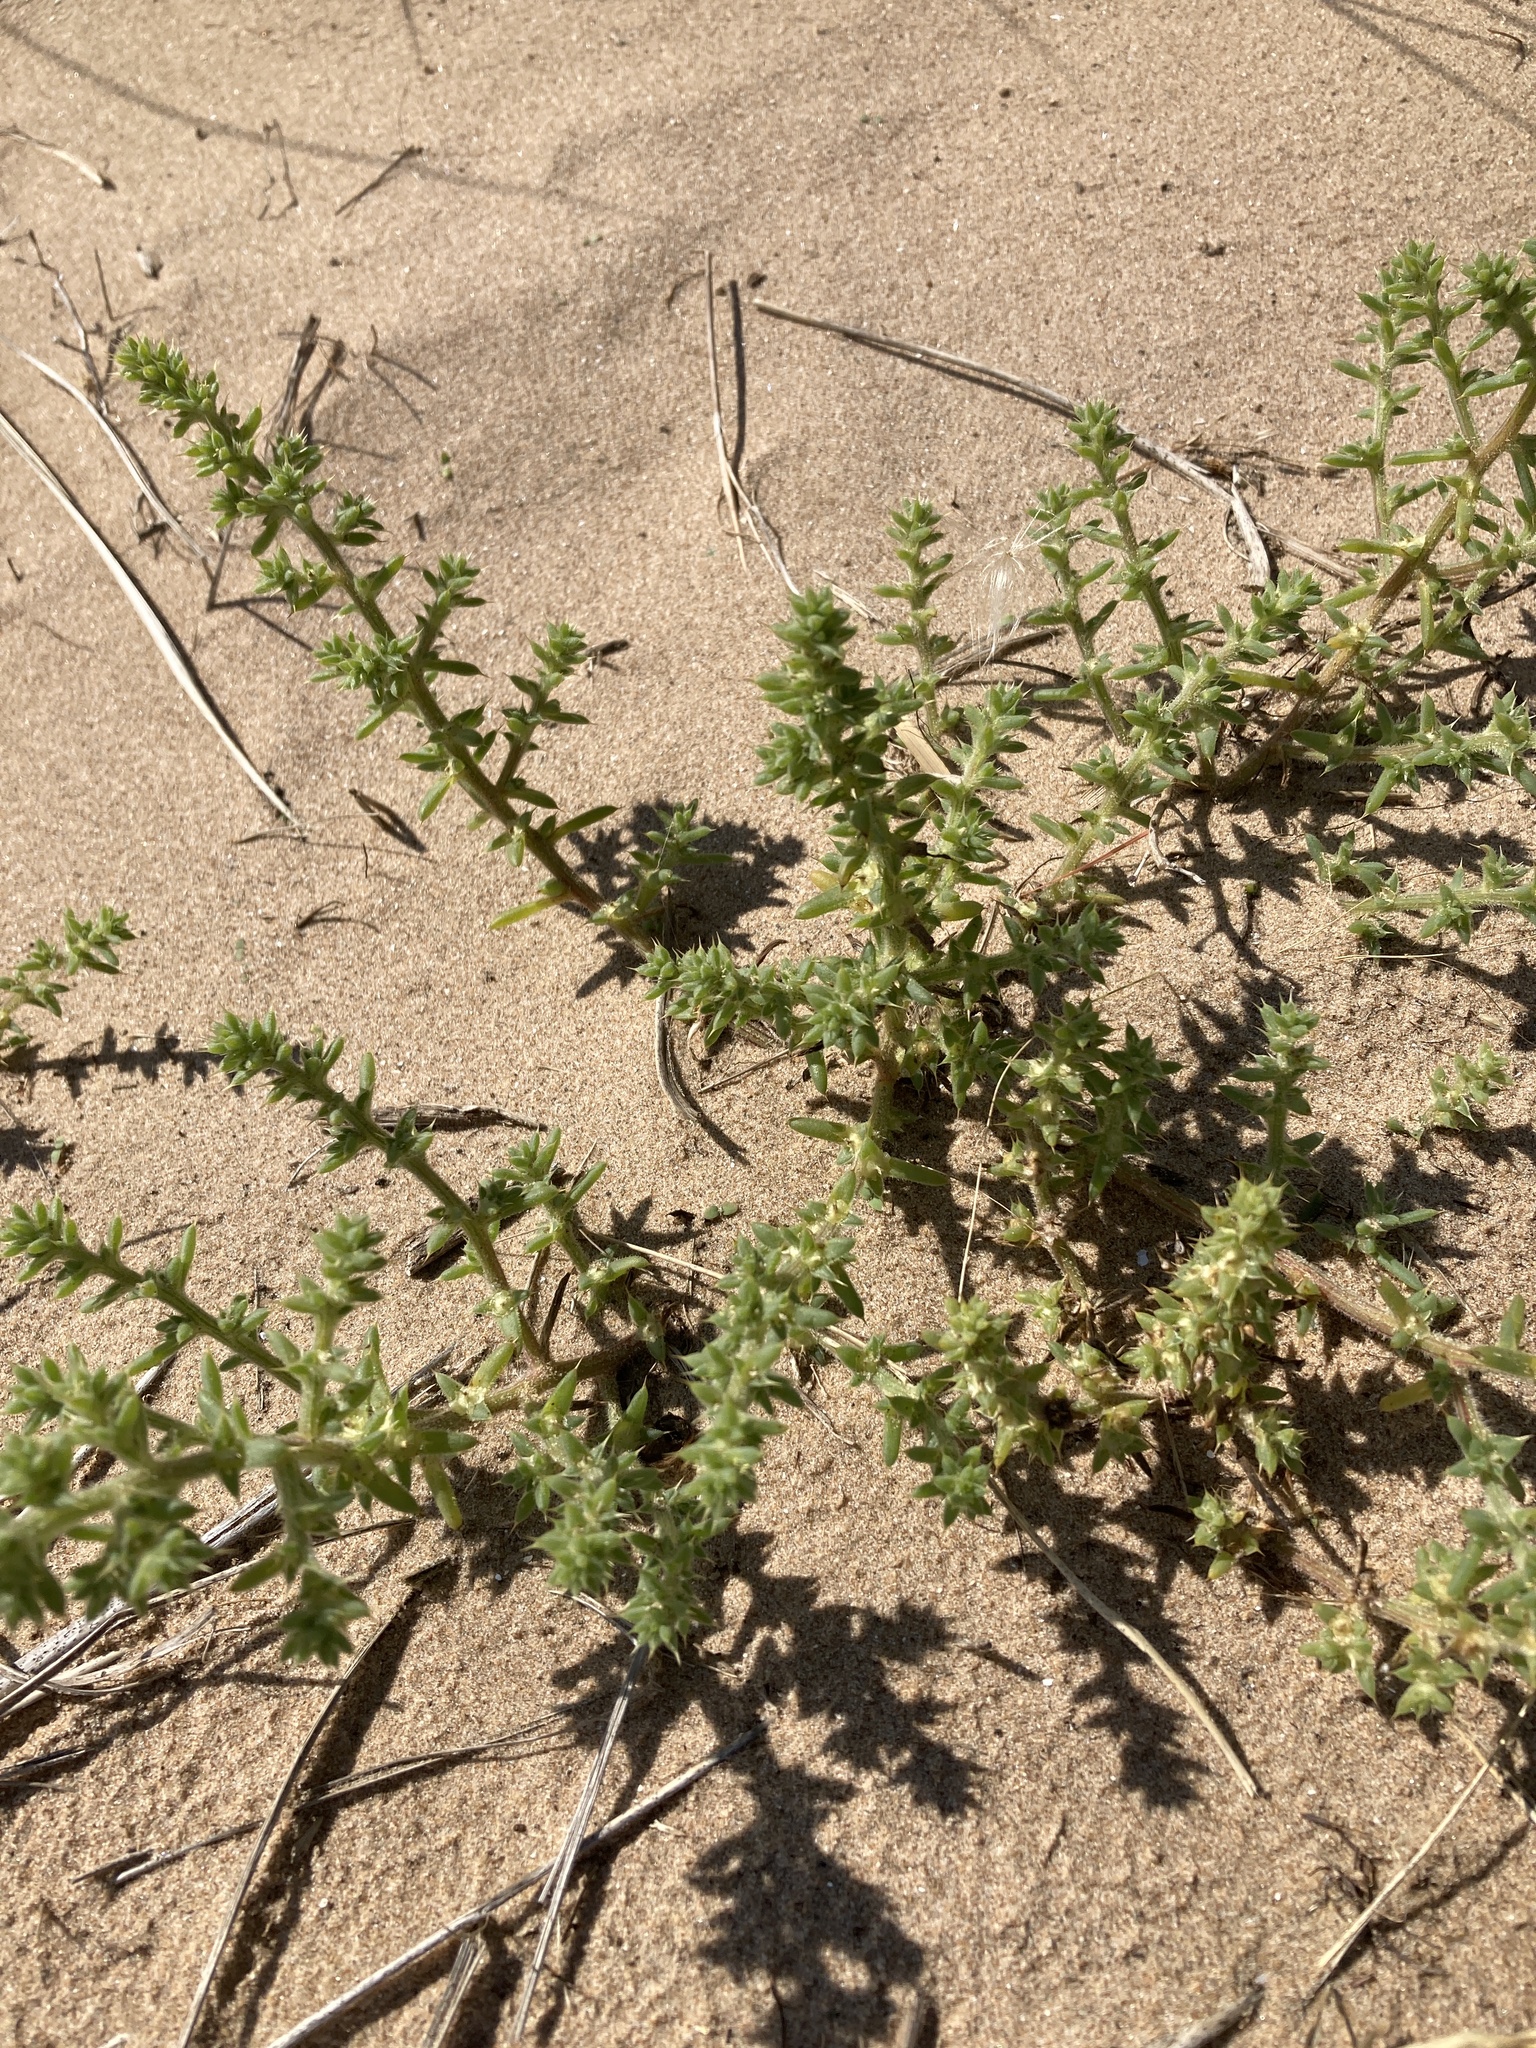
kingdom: Plantae
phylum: Tracheophyta
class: Magnoliopsida
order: Caryophyllales
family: Amaranthaceae
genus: Salsola
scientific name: Salsola kali
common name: Saltwort
